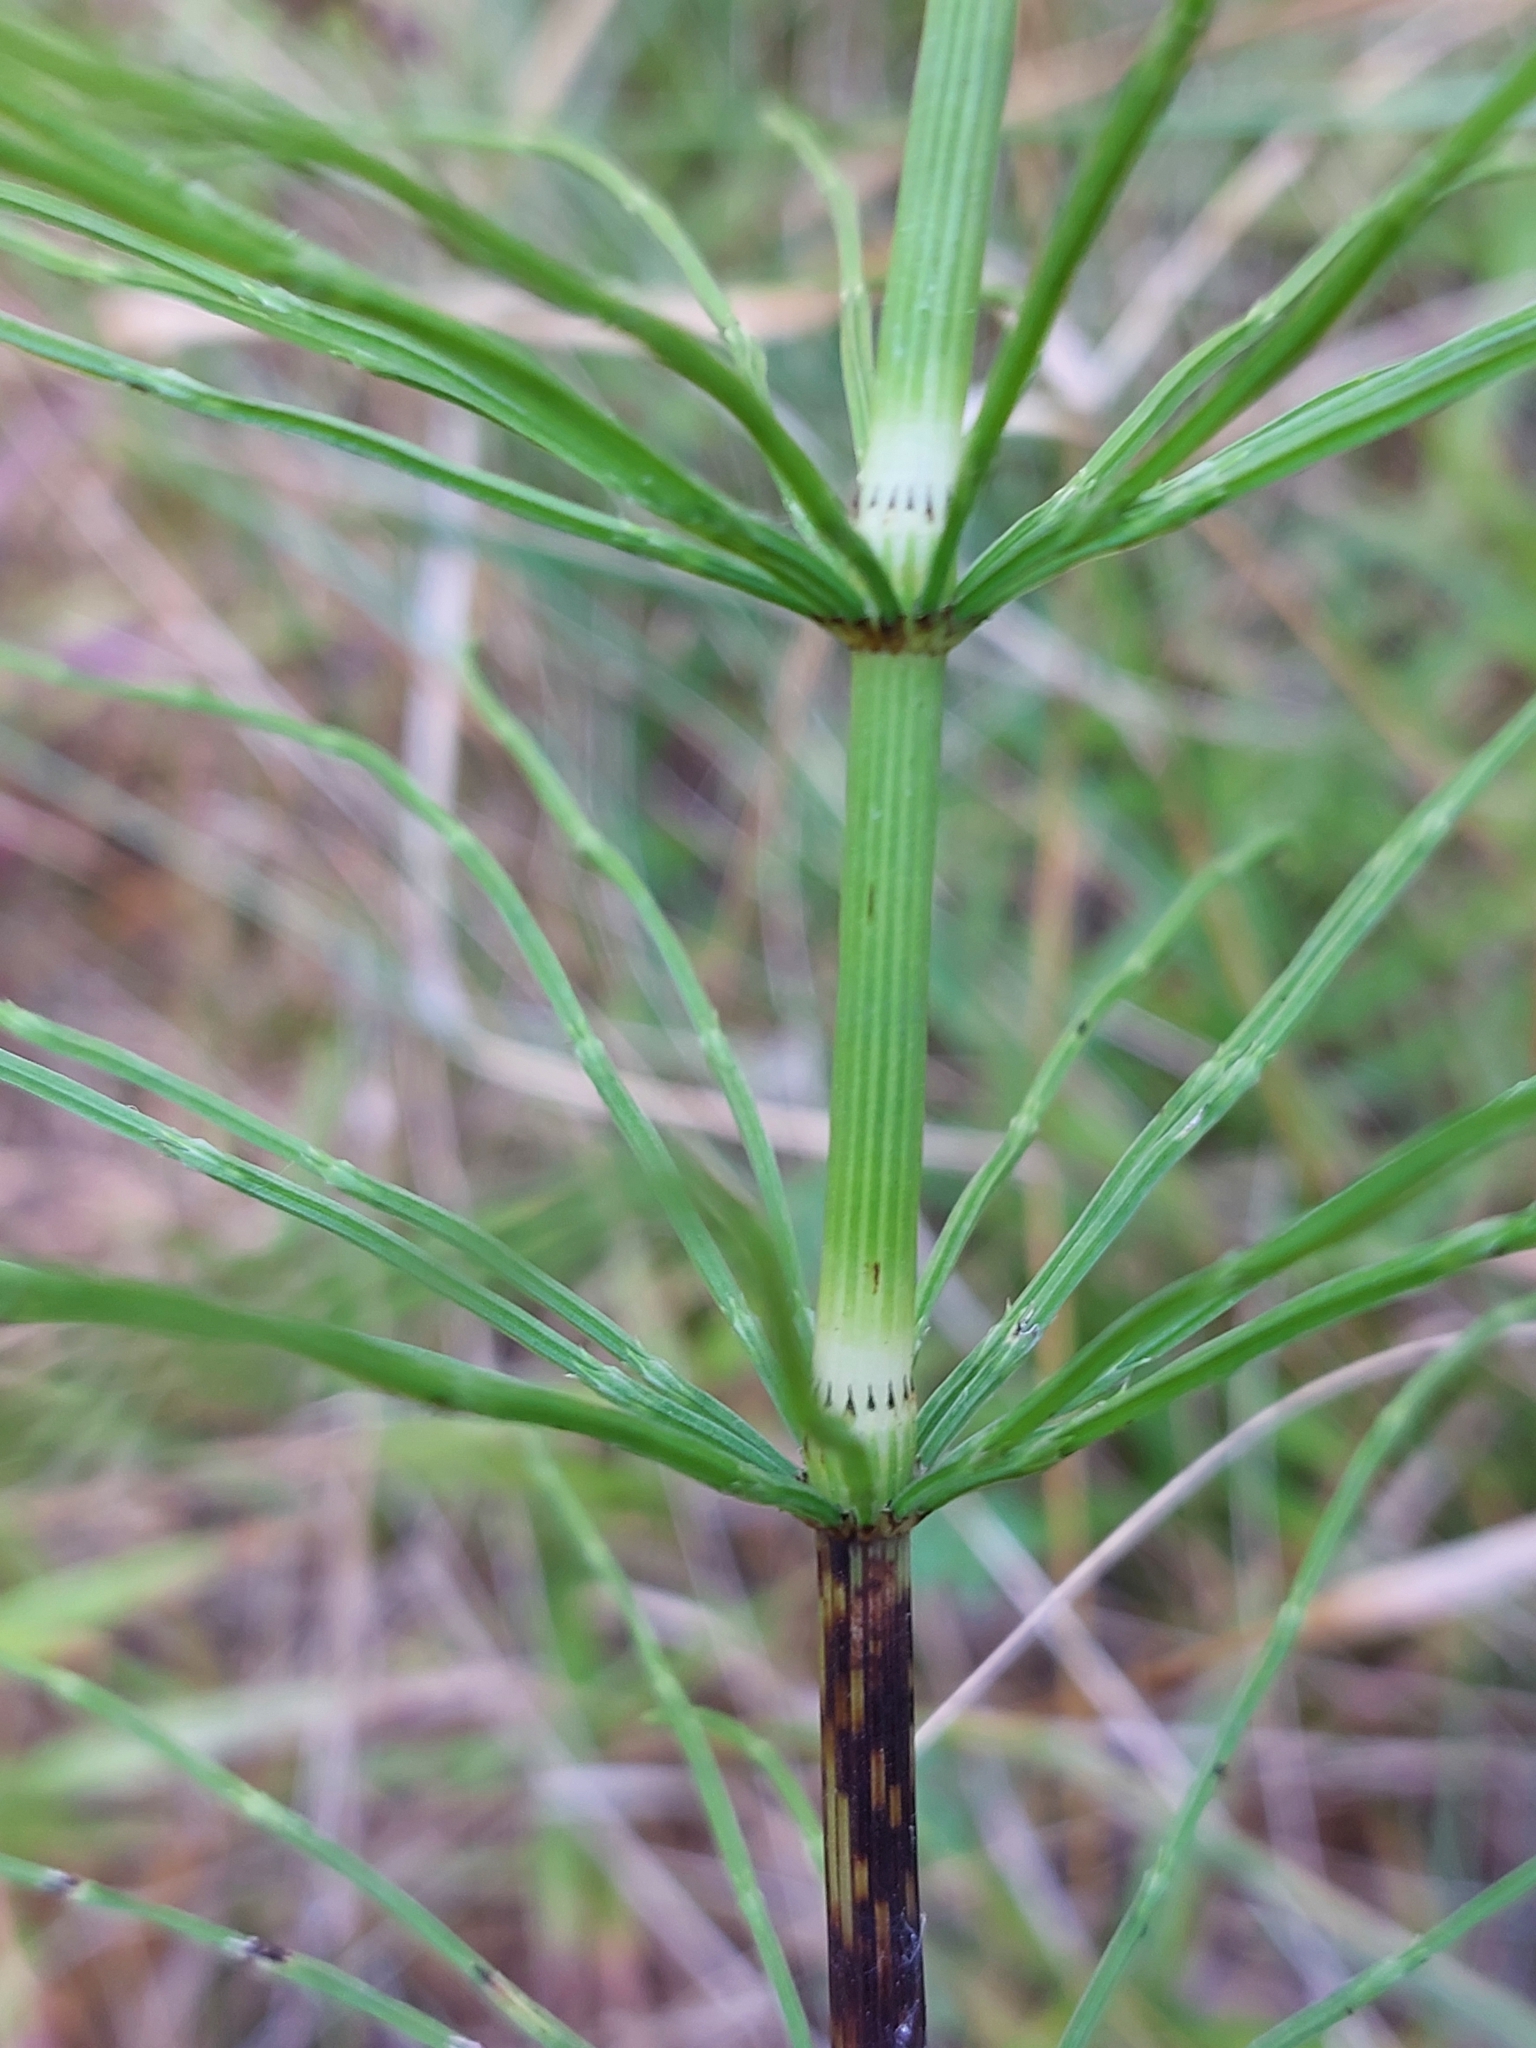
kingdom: Plantae
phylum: Tracheophyta
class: Polypodiopsida
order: Equisetales
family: Equisetaceae
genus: Equisetum
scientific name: Equisetum arvense
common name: Field horsetail
